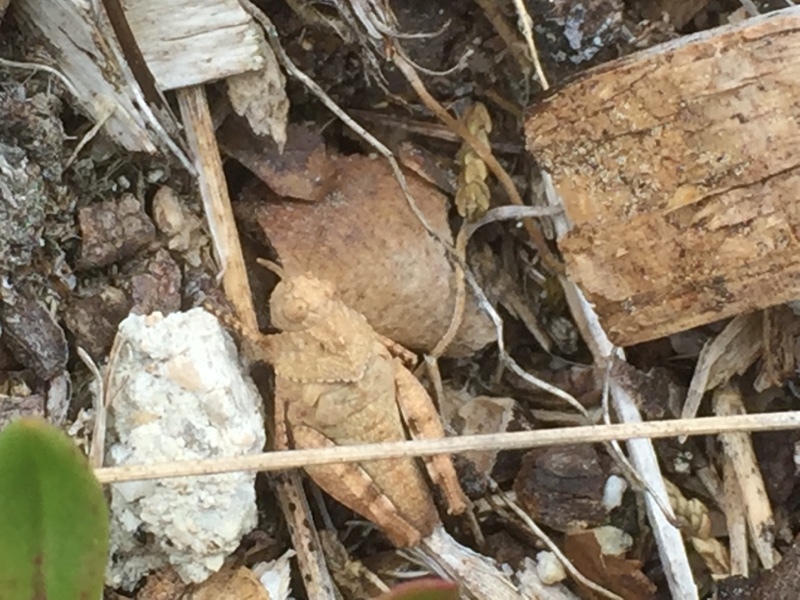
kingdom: Animalia
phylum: Arthropoda
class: Insecta
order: Orthoptera
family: Acrididae
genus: Oedipoda
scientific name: Oedipoda caerulescens
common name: Blue-winged grasshopper
